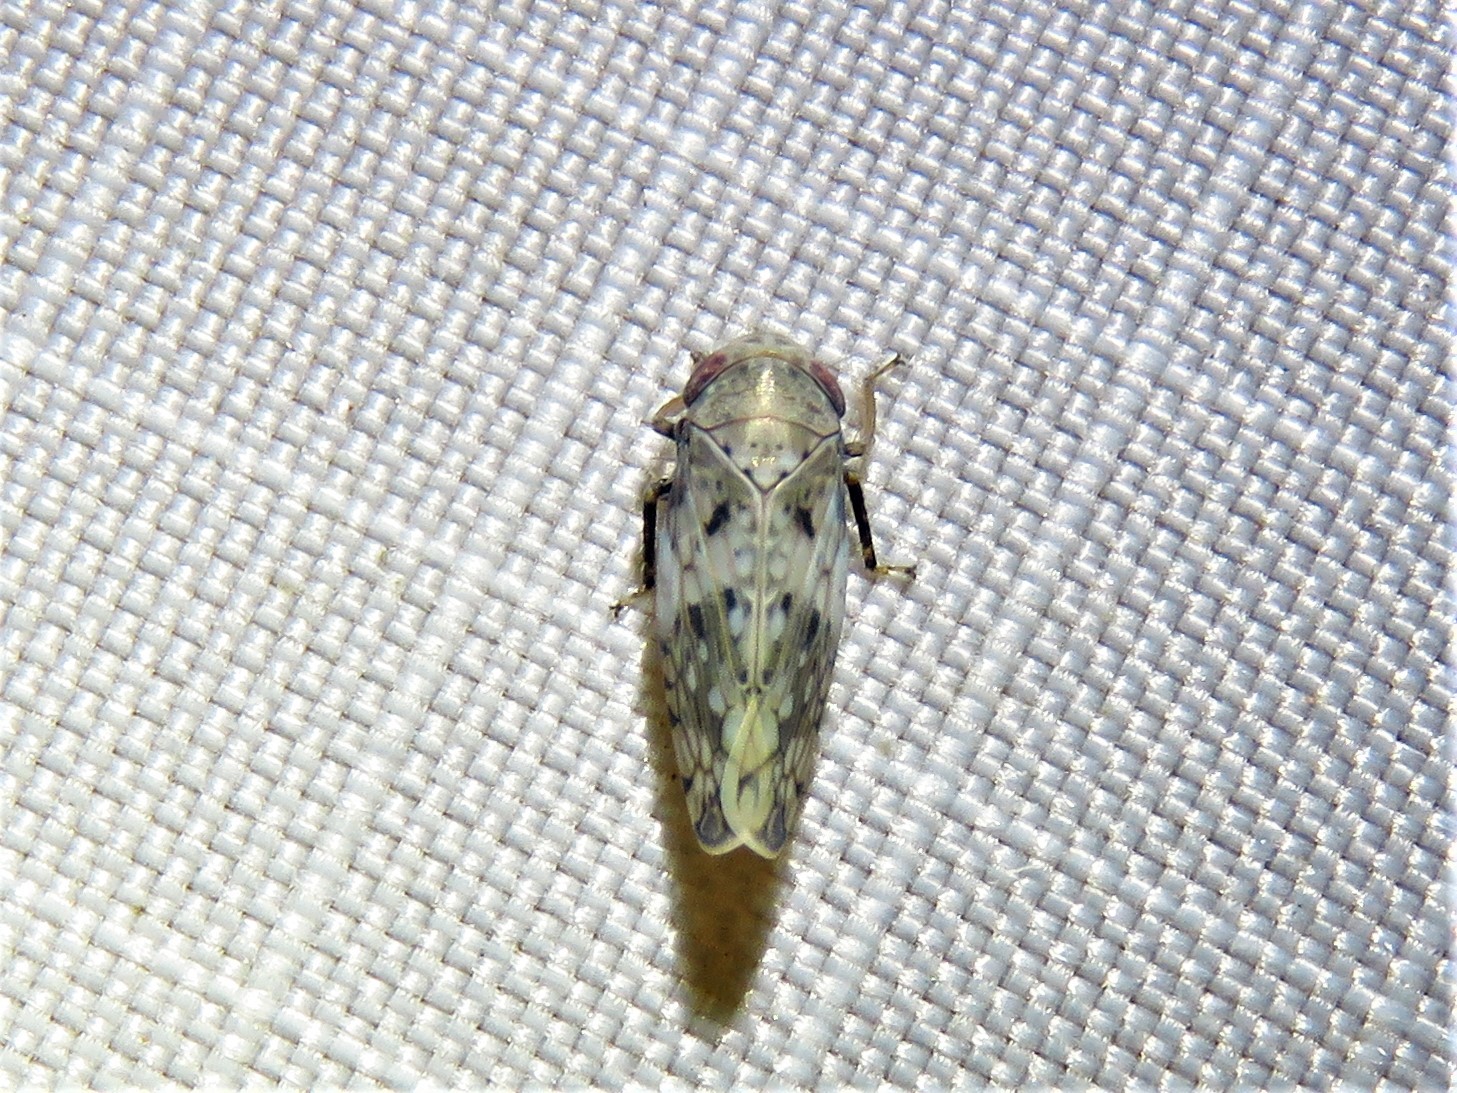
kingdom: Animalia
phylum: Arthropoda
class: Insecta
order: Hemiptera
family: Cicadellidae
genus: Menosoma
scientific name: Menosoma cinctum
